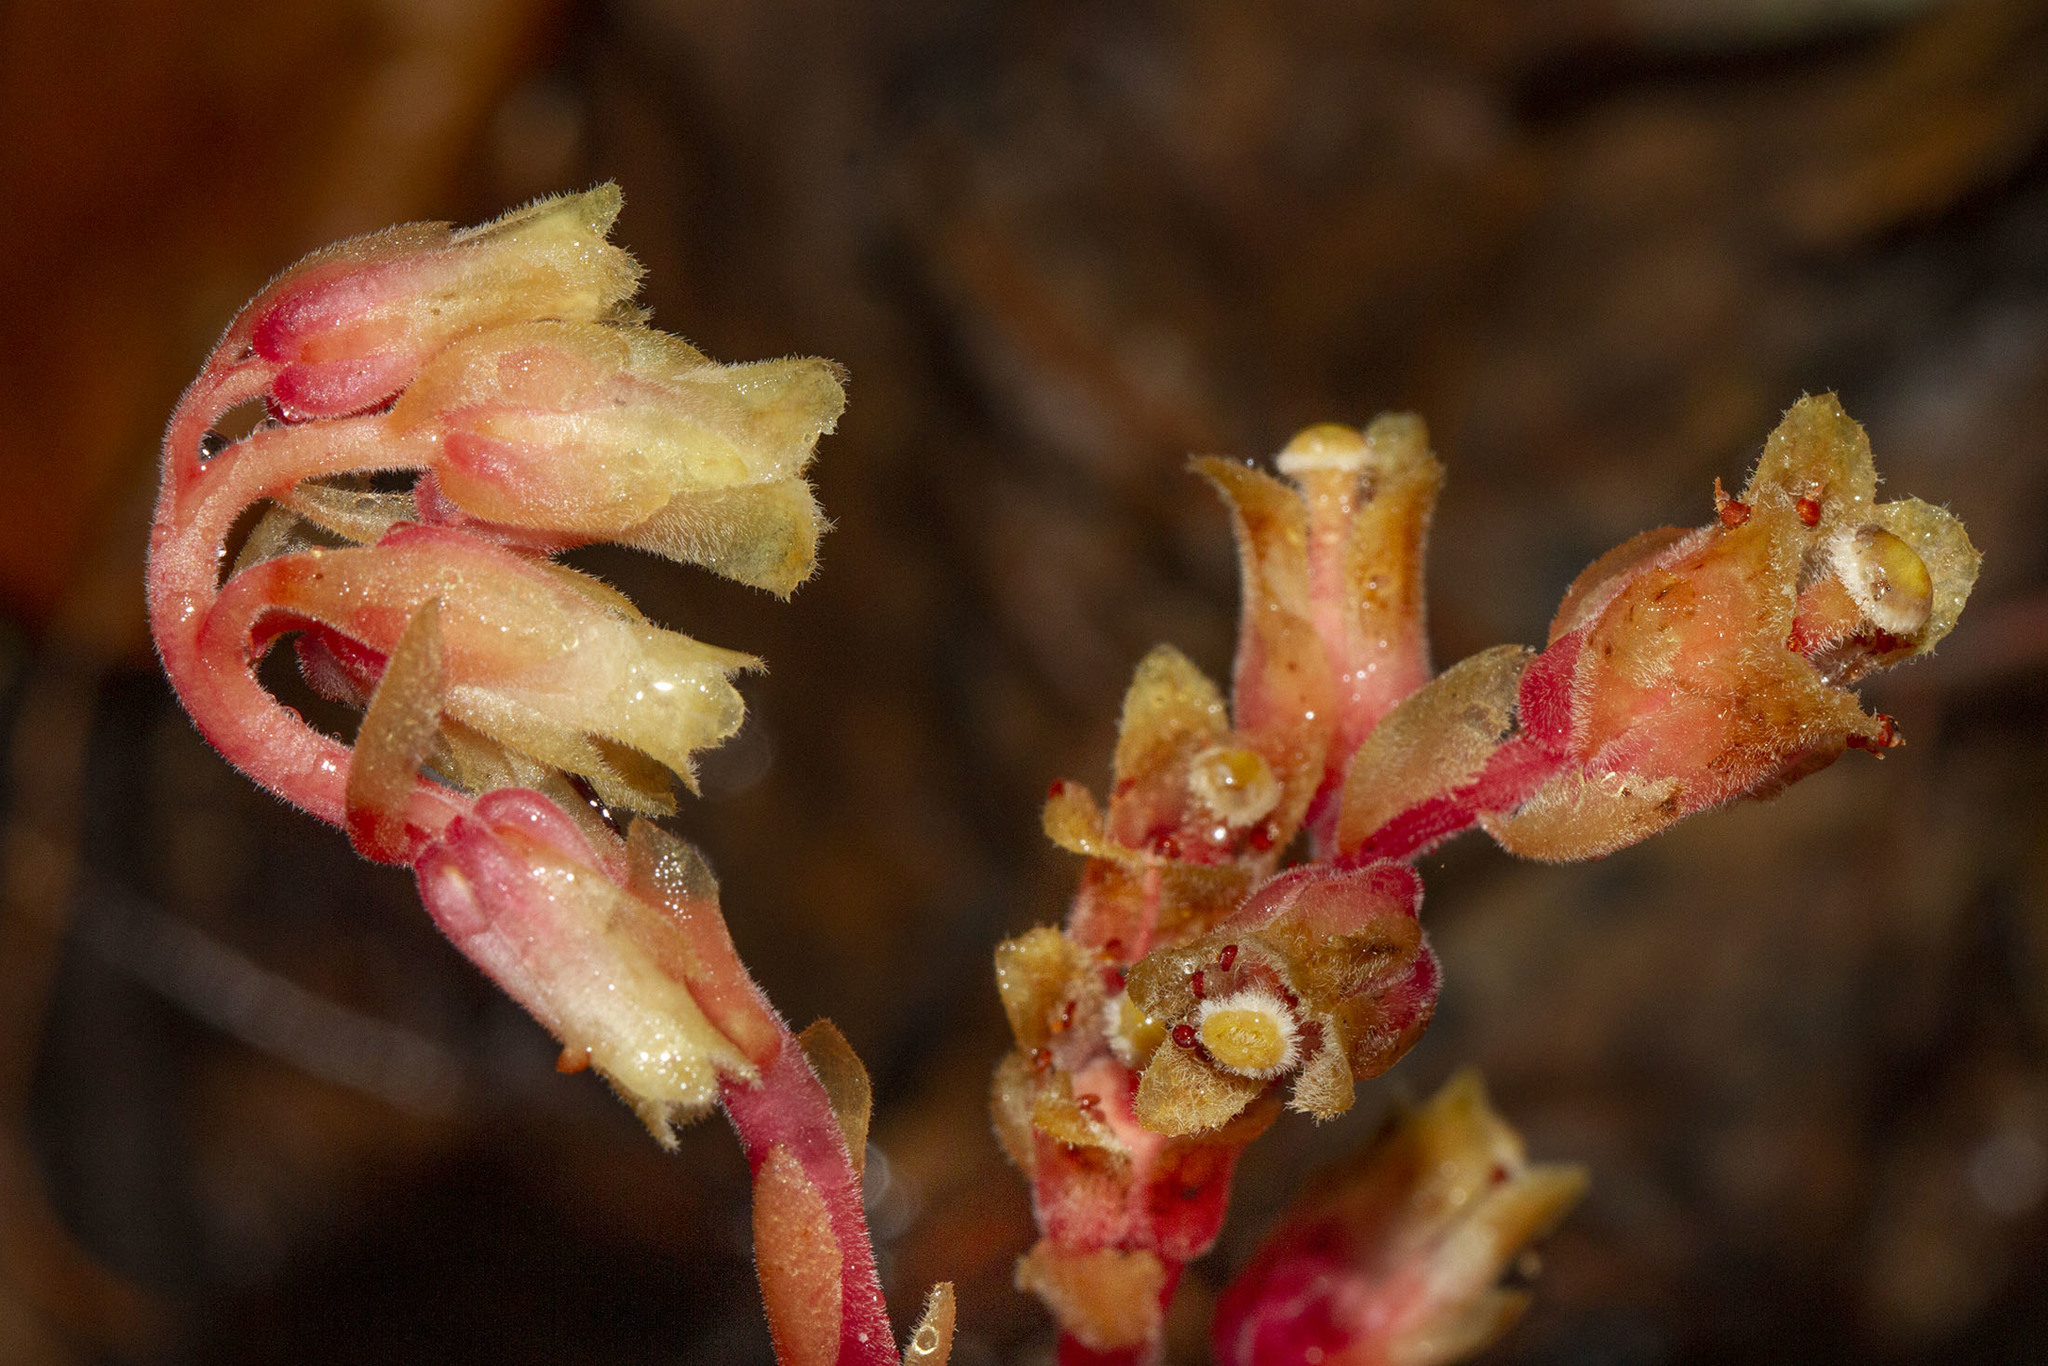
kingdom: Plantae
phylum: Tracheophyta
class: Magnoliopsida
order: Ericales
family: Ericaceae
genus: Hypopitys
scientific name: Hypopitys monotropa
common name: Yellow bird's-nest
